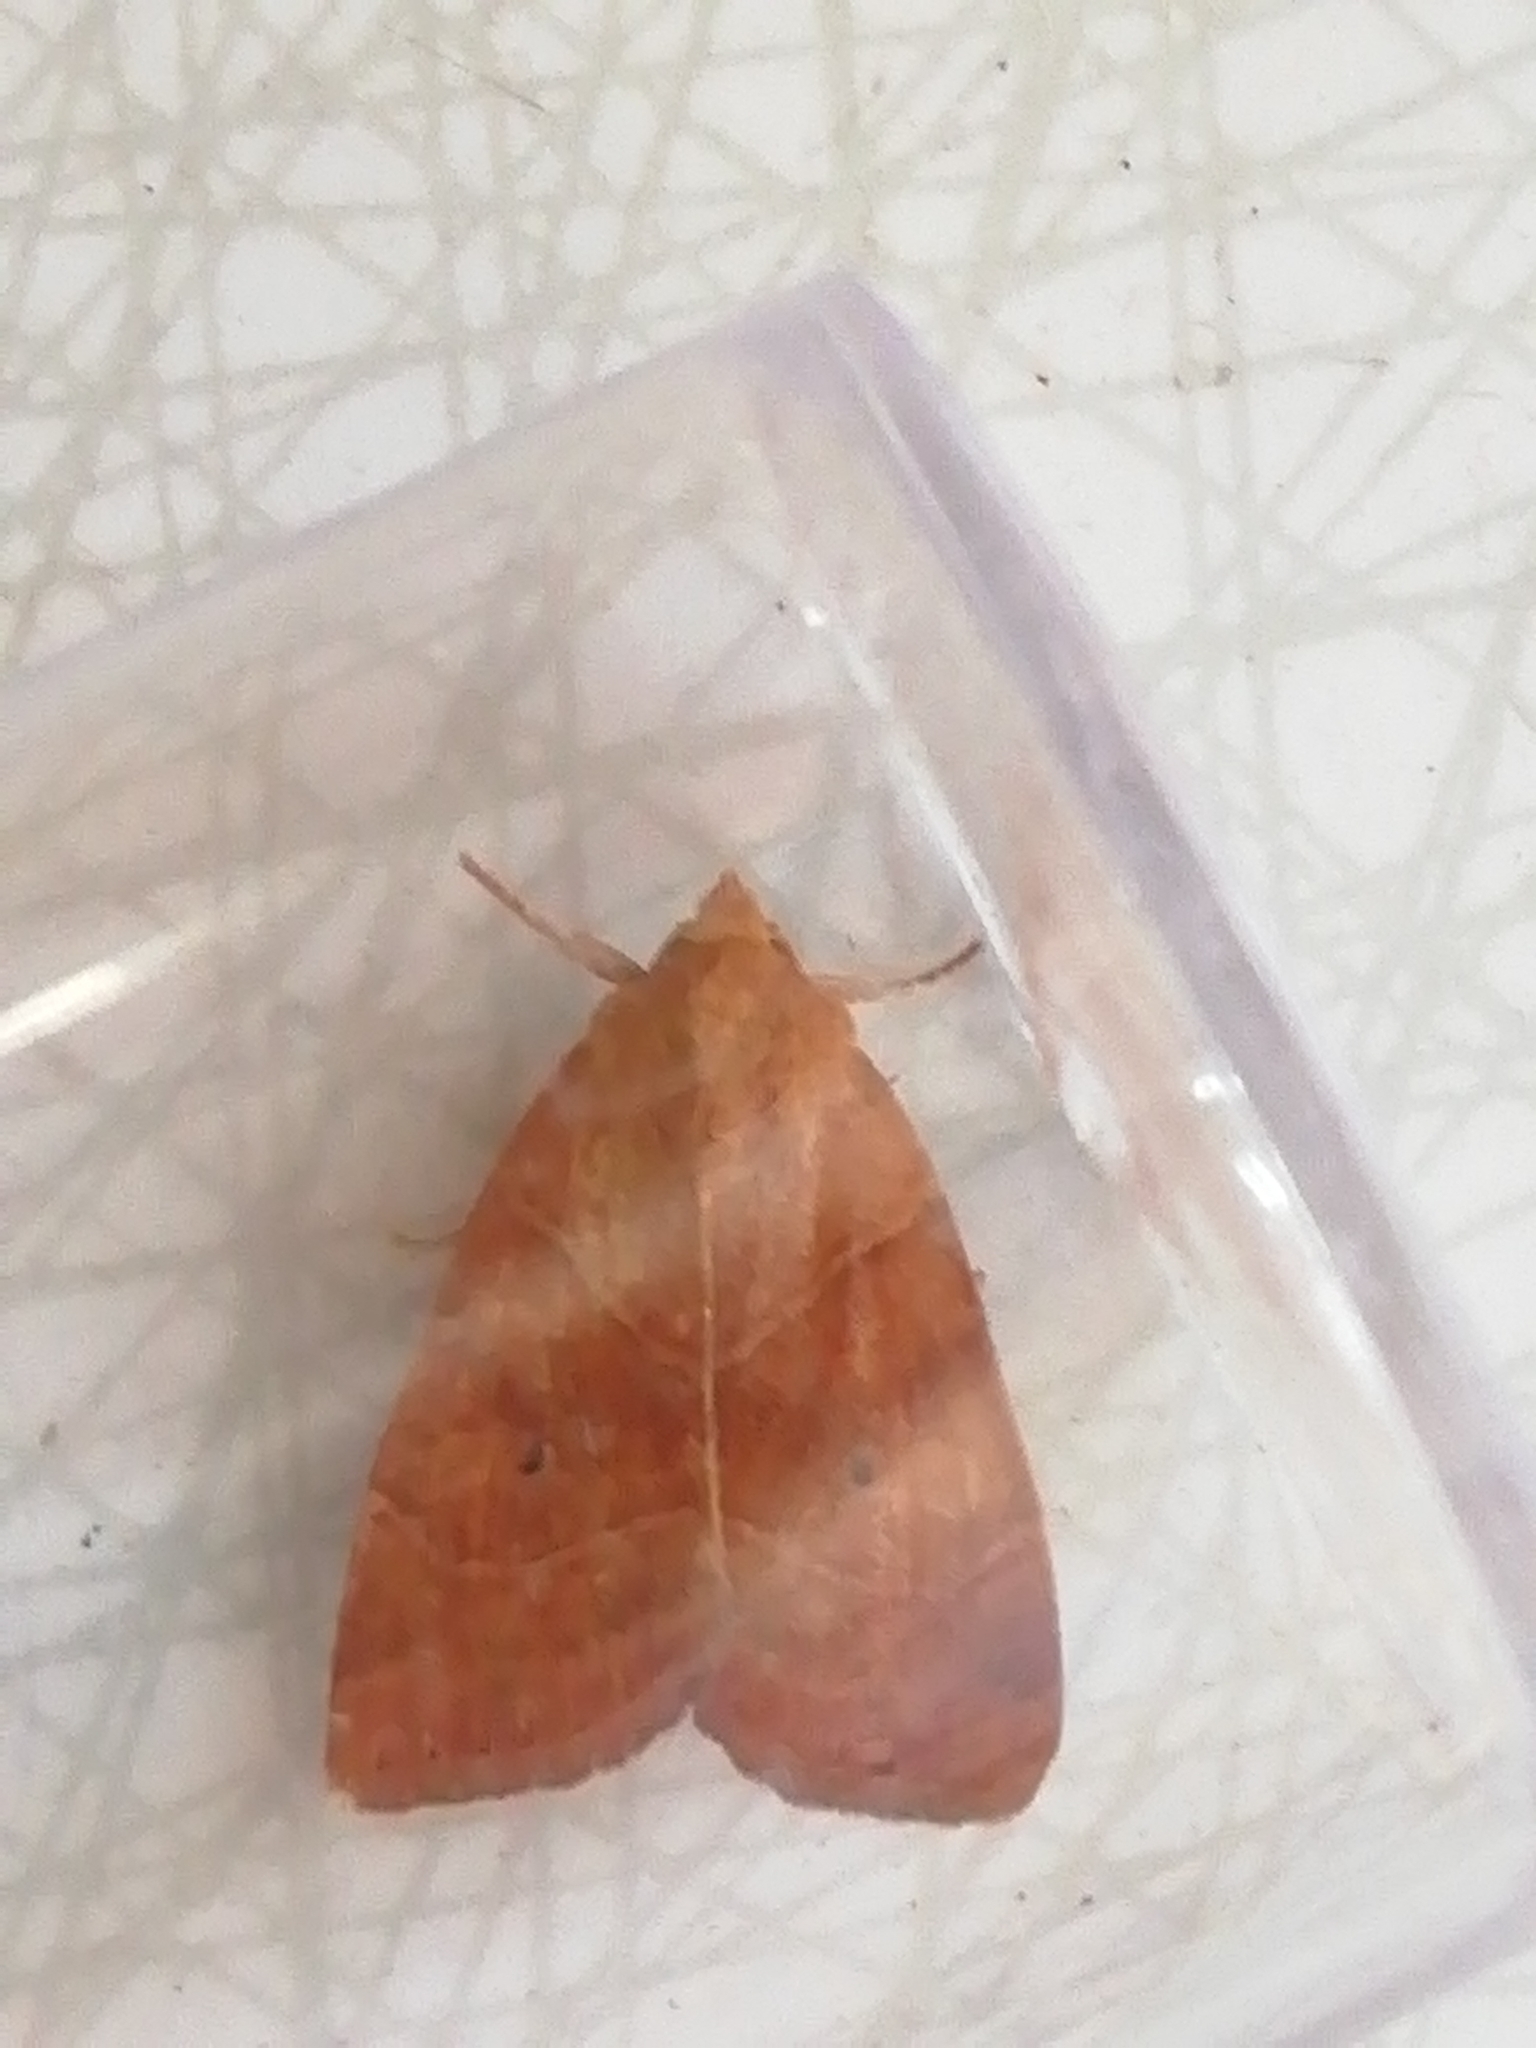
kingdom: Animalia
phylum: Arthropoda
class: Insecta
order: Lepidoptera
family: Noctuidae
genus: Cosmia
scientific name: Cosmia trapezina
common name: Dun-bar
